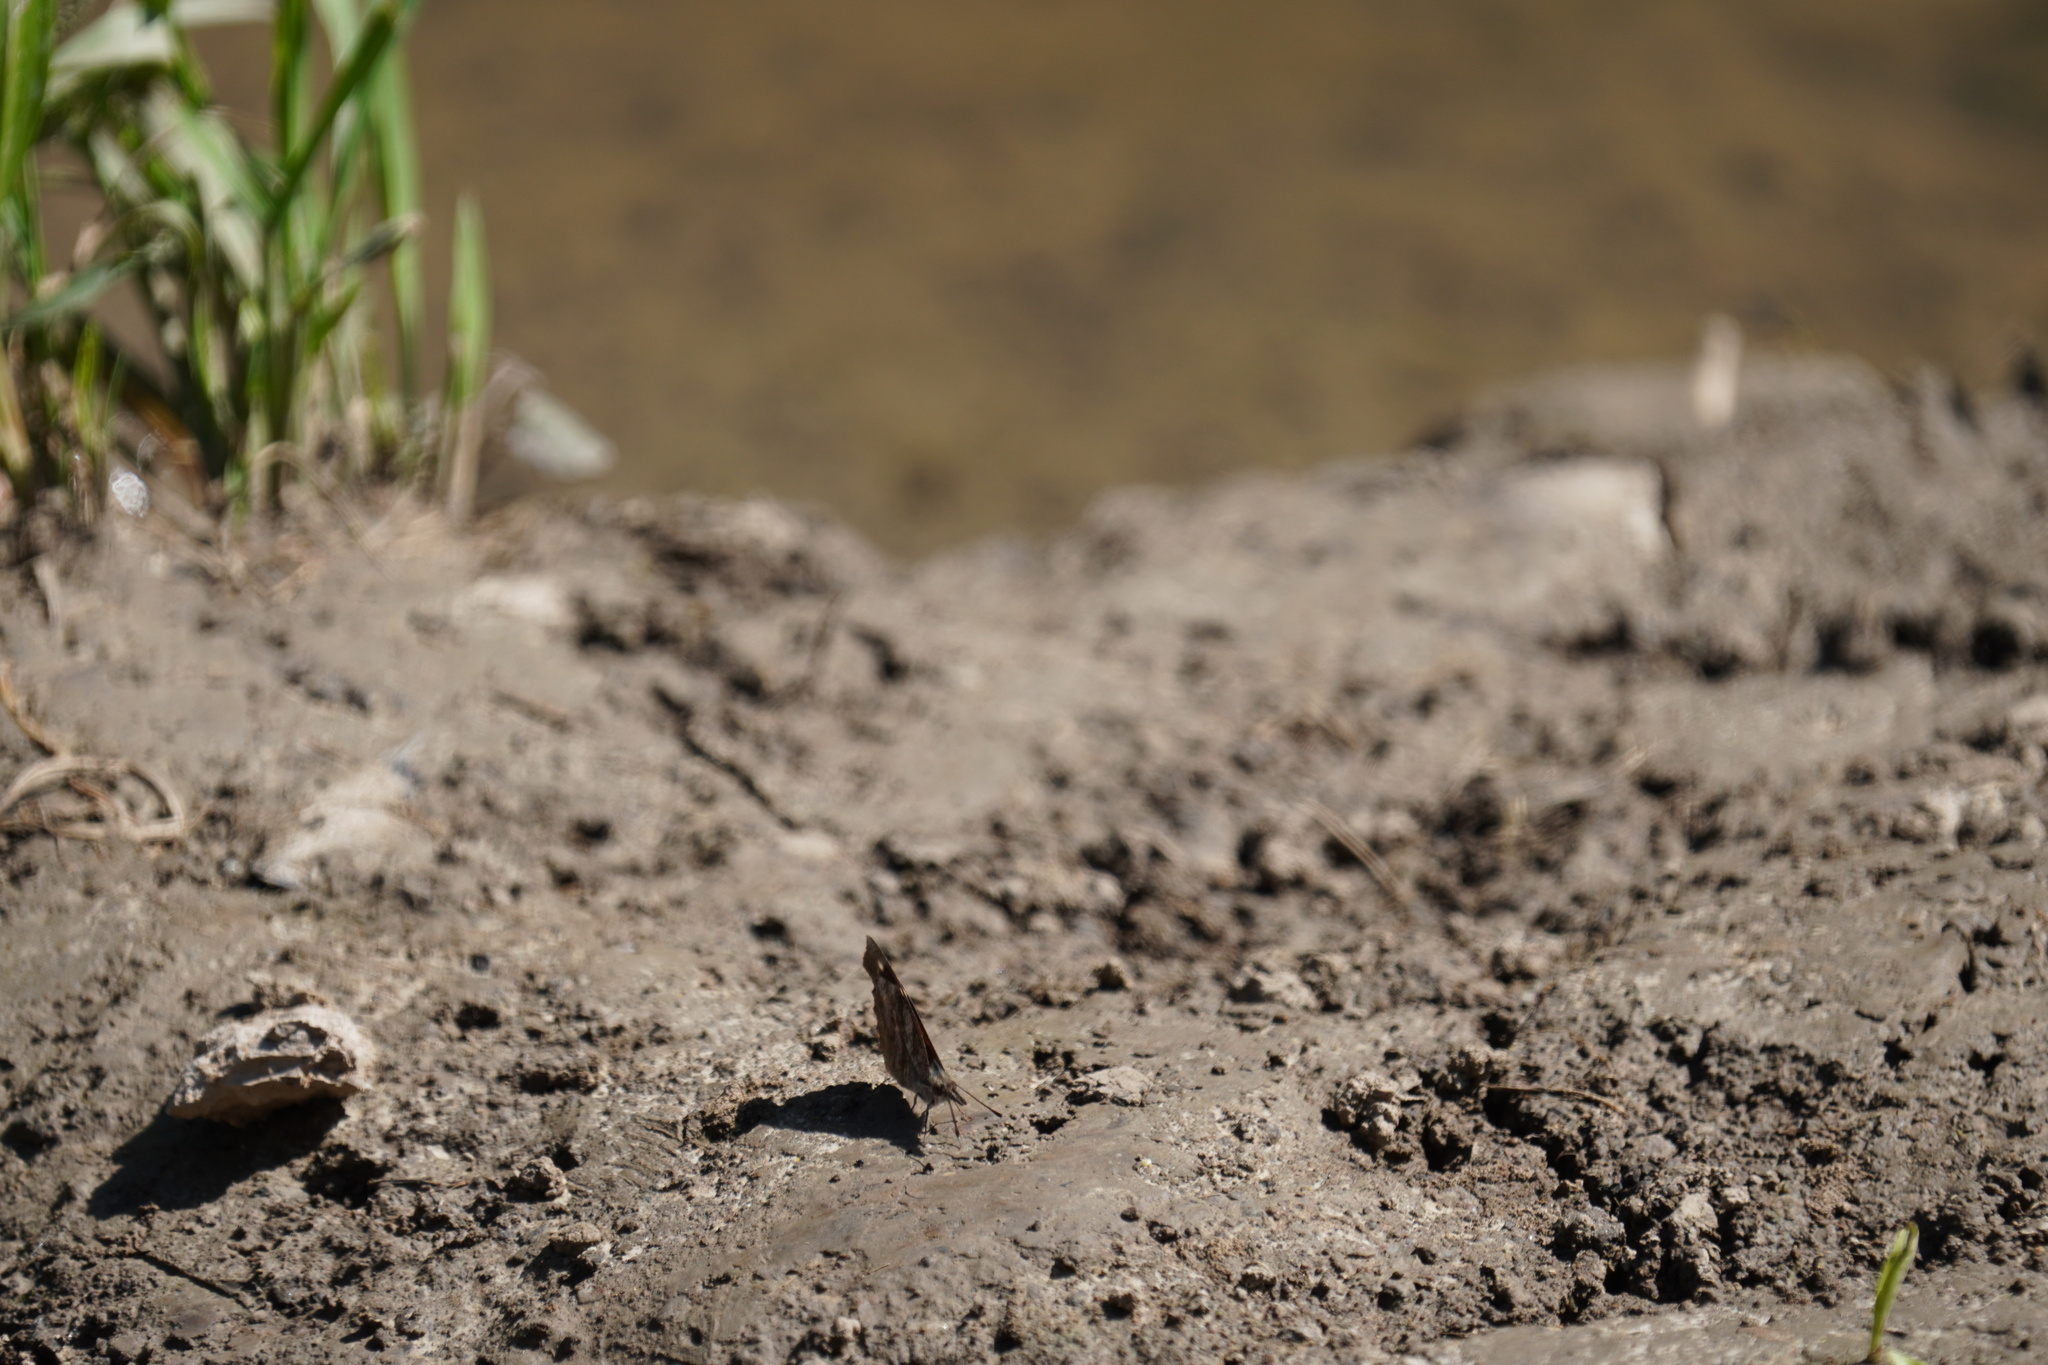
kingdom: Animalia
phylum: Arthropoda
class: Insecta
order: Lepidoptera
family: Nymphalidae
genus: Libytheana
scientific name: Libytheana carinenta
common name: American snout
